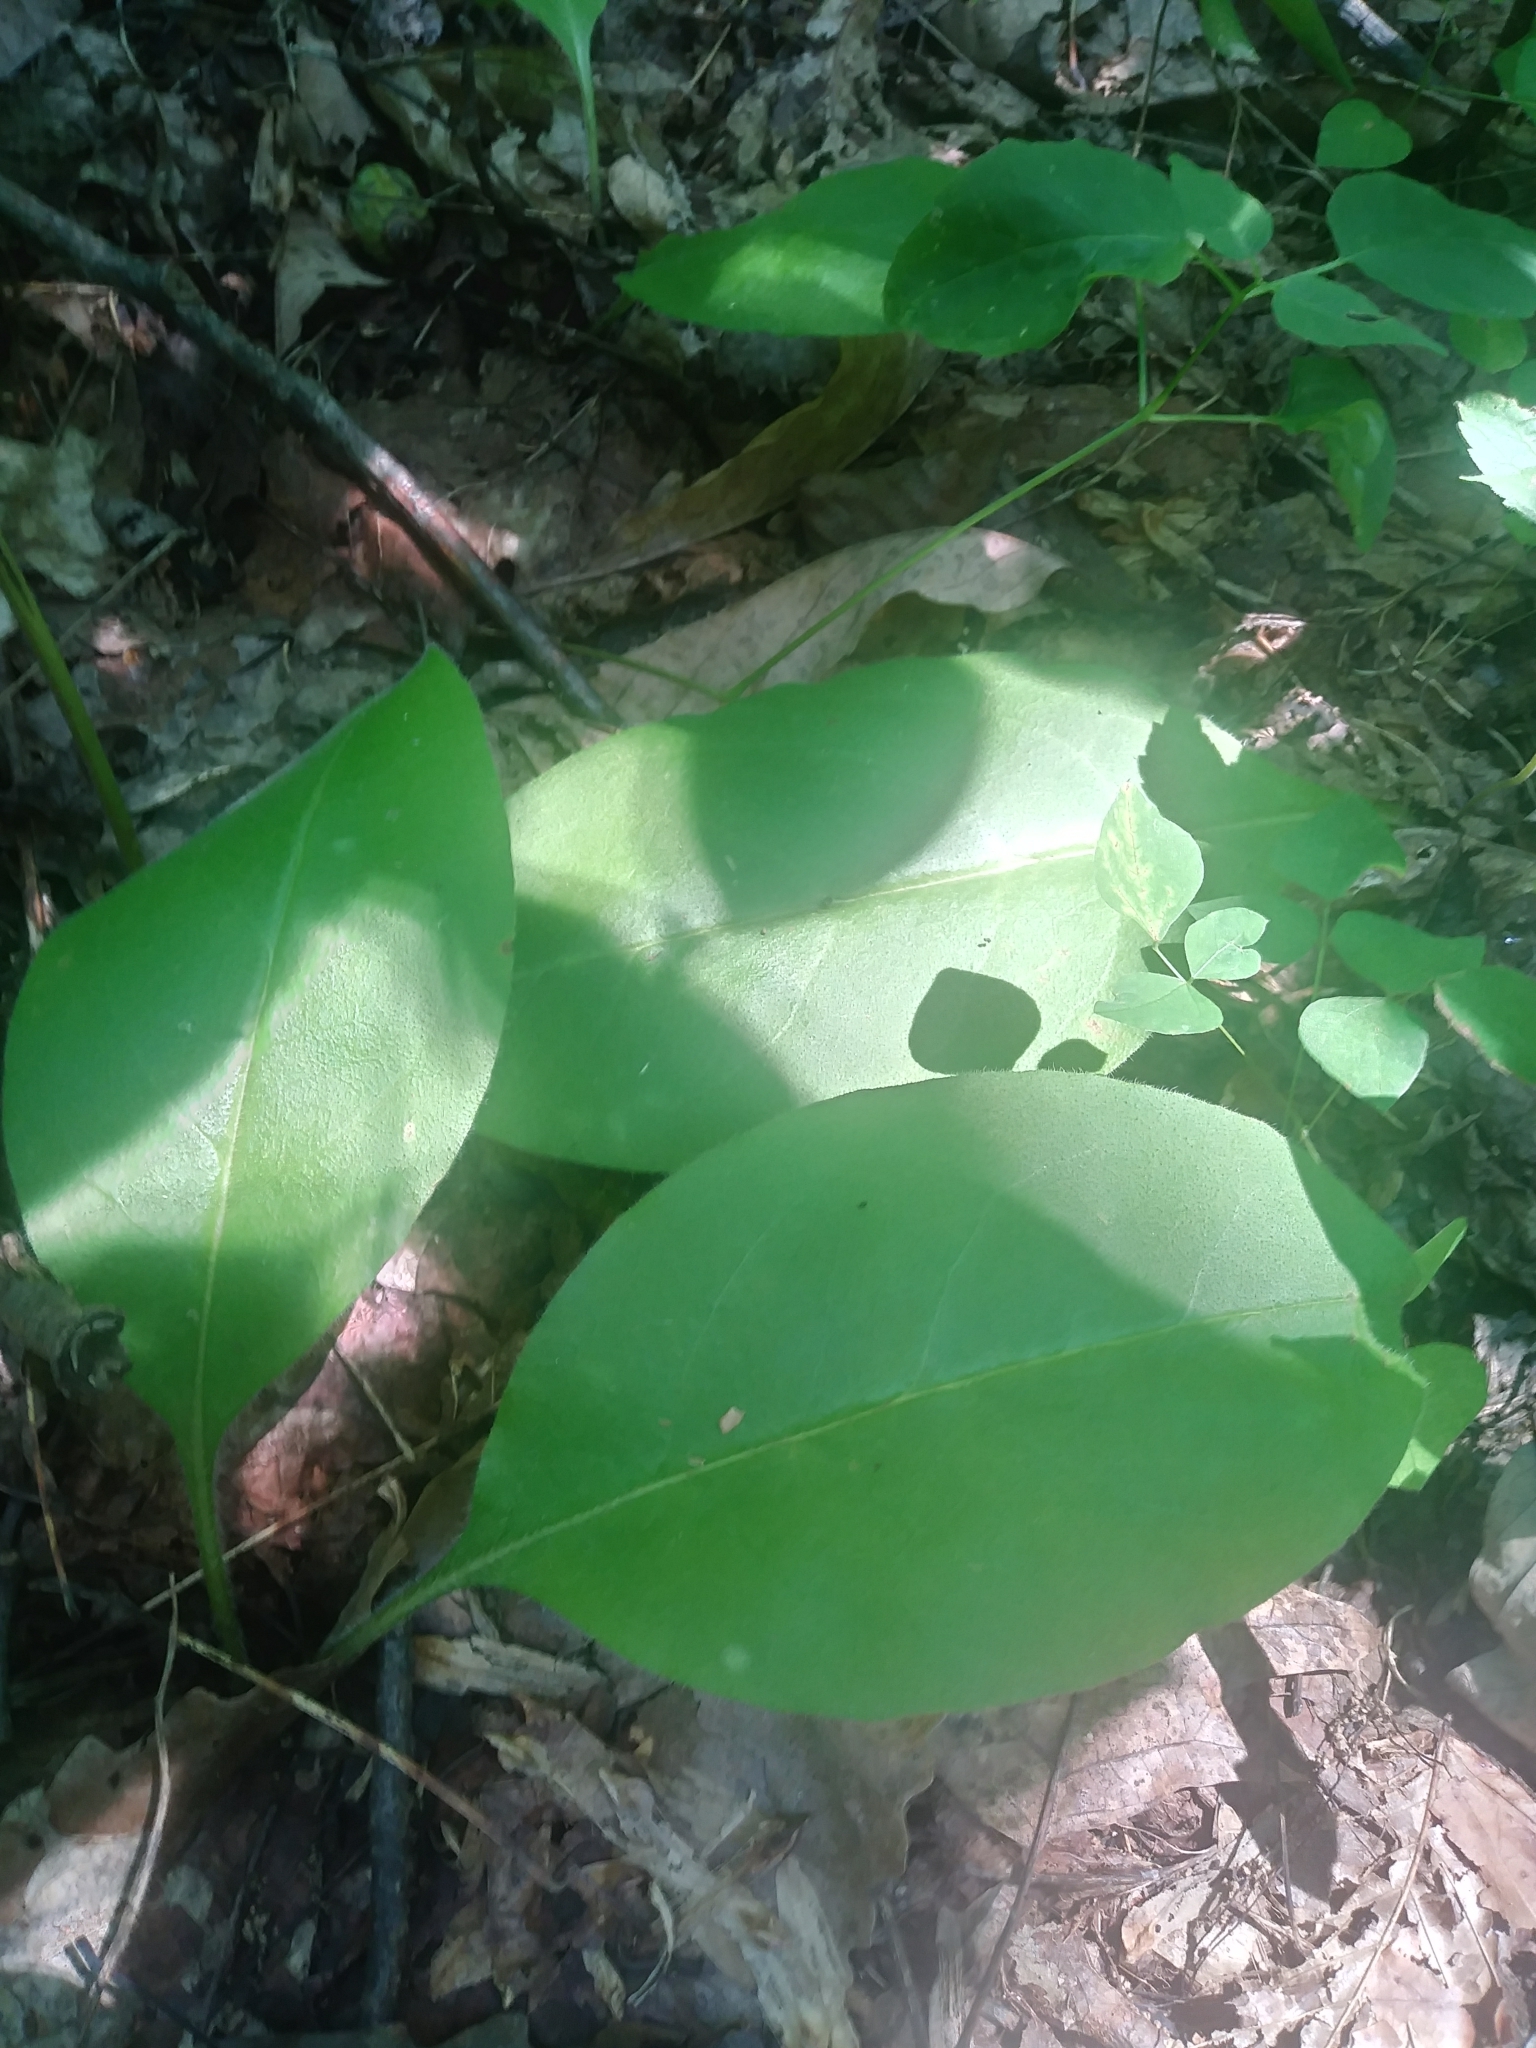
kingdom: Plantae
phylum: Tracheophyta
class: Magnoliopsida
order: Boraginales
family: Boraginaceae
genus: Andersonglossum
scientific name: Andersonglossum virginianum
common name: Wild comfrey
